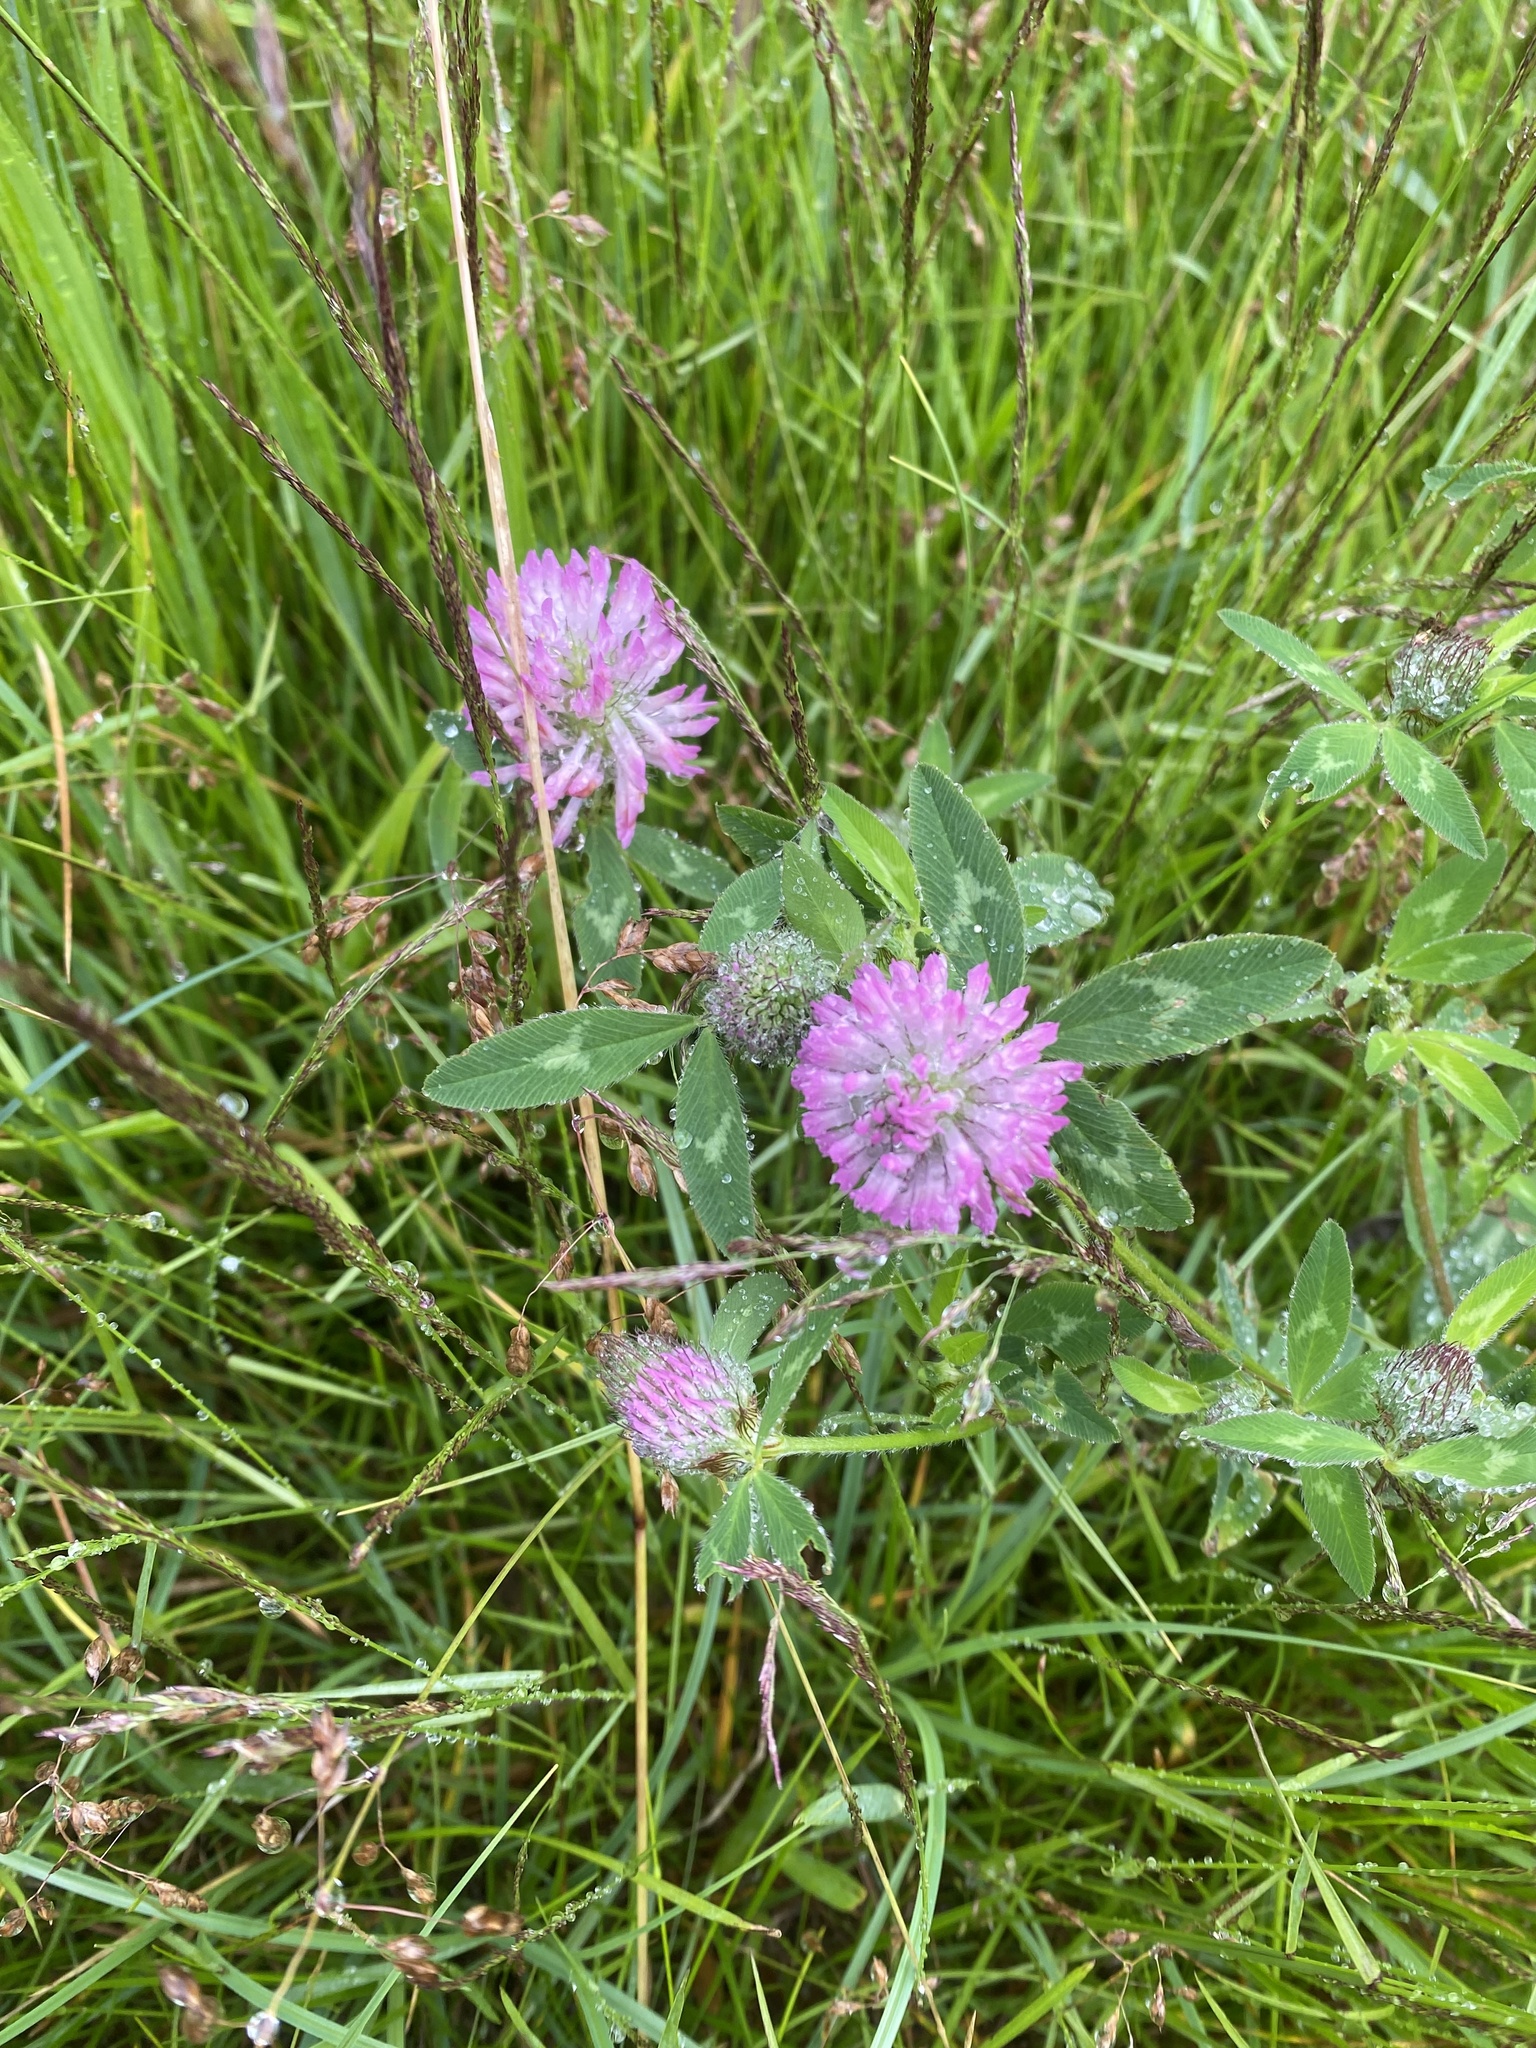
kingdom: Plantae
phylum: Tracheophyta
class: Magnoliopsida
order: Fabales
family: Fabaceae
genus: Trifolium
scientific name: Trifolium pratense
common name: Red clover
